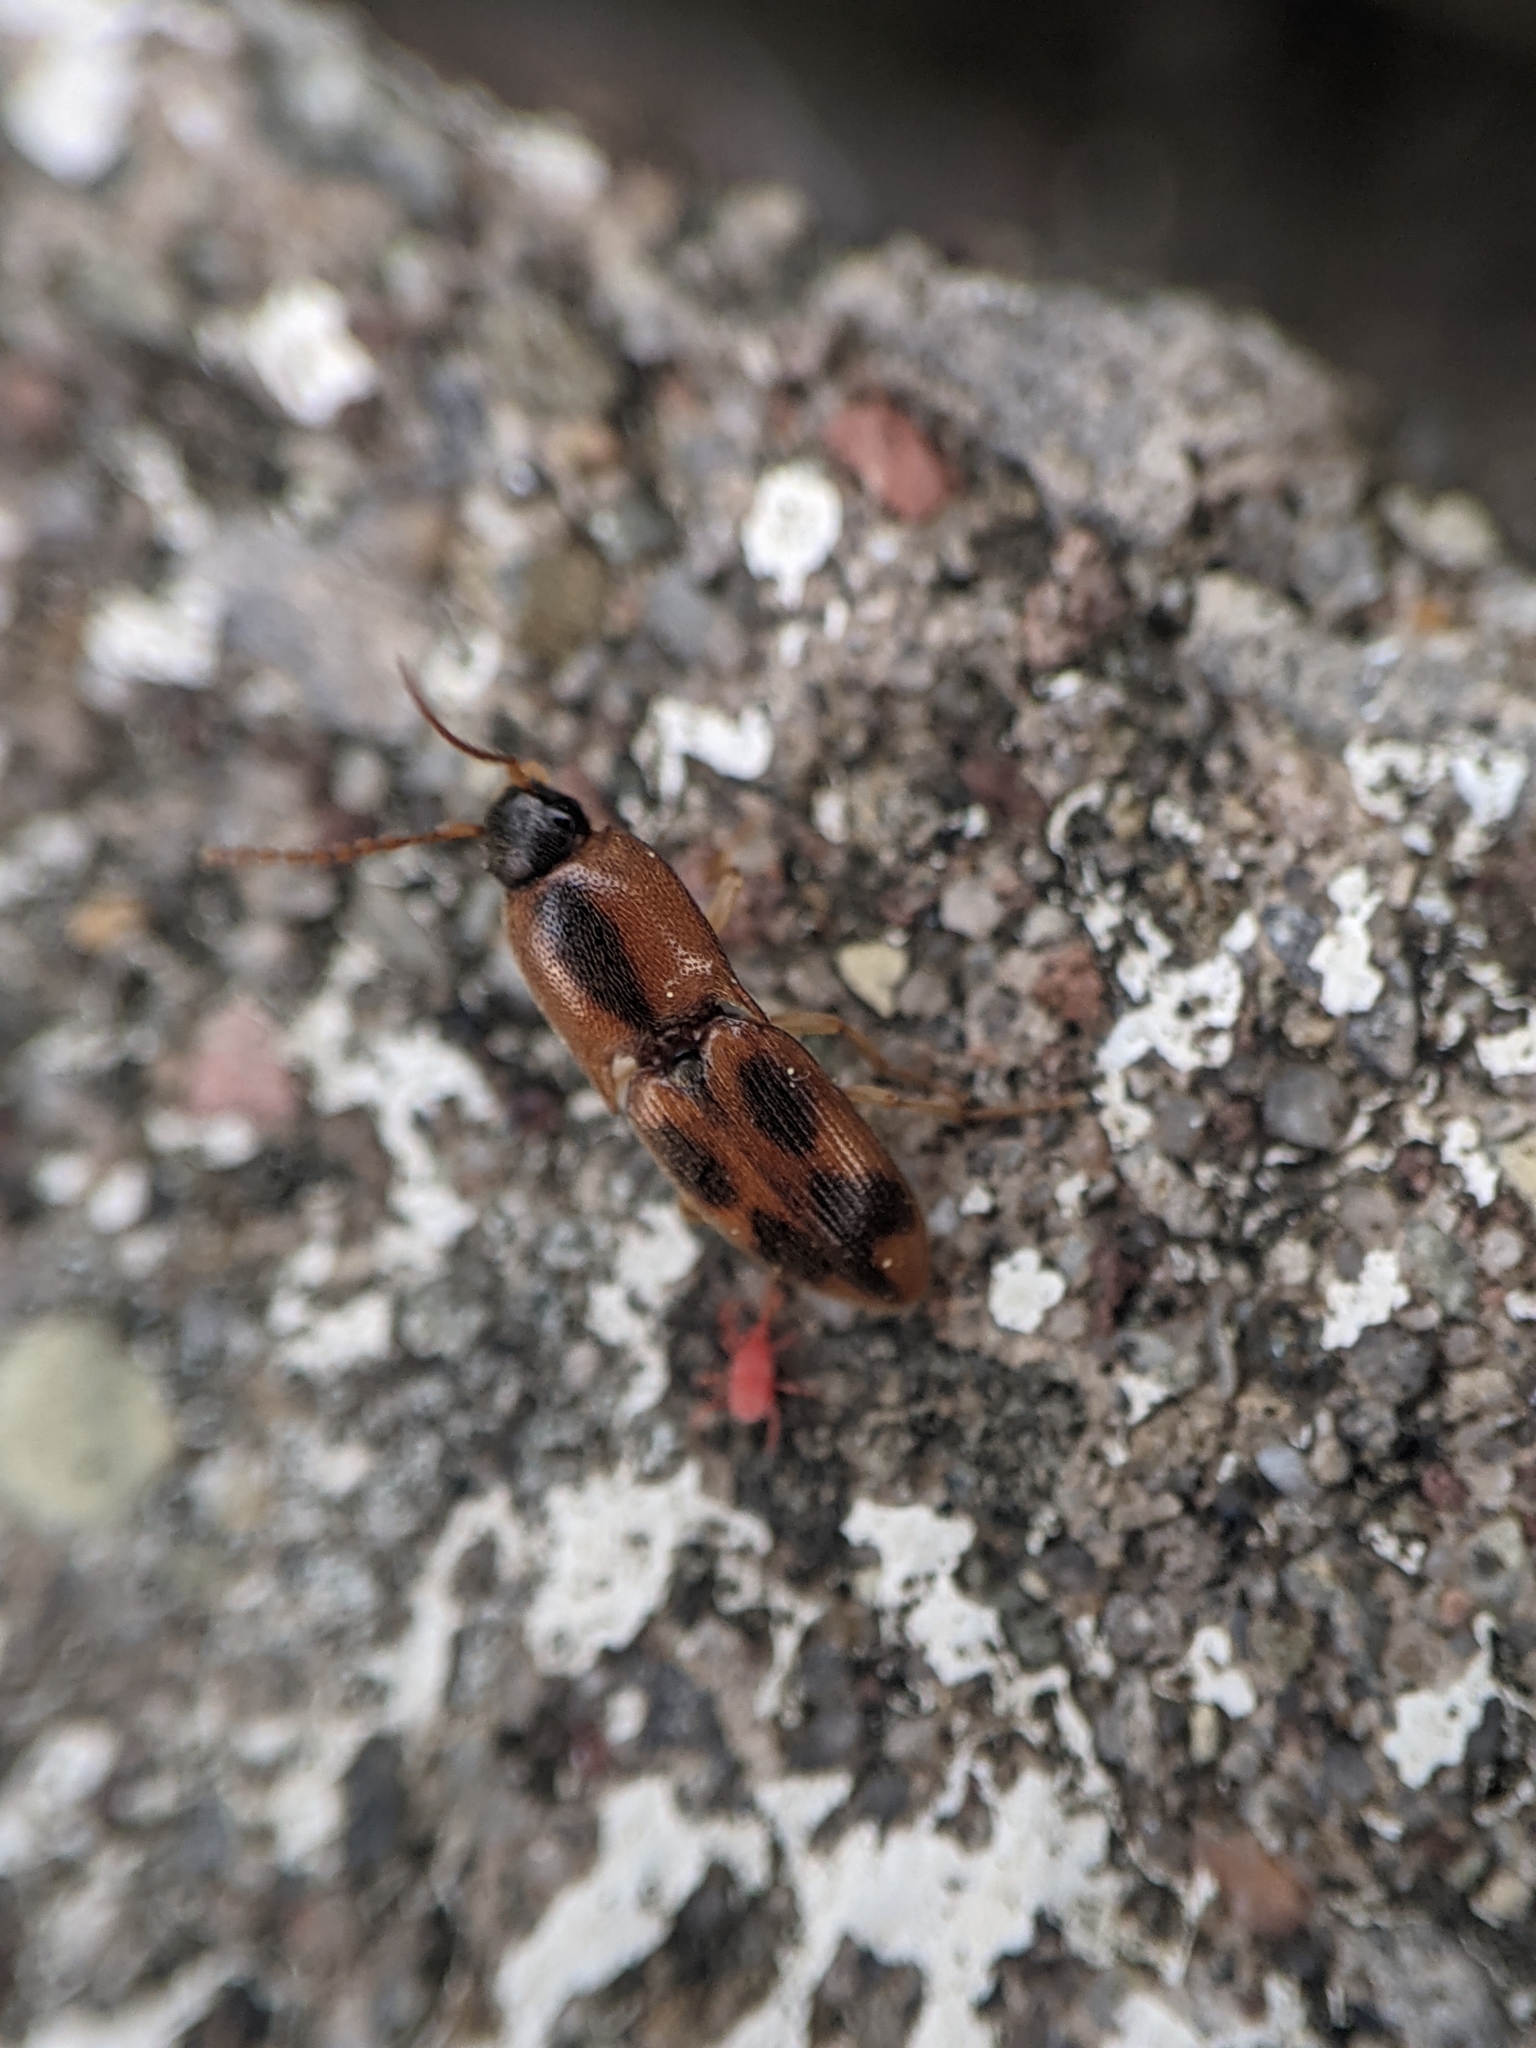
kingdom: Animalia
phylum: Arthropoda
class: Insecta
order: Coleoptera
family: Elateridae
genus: Aeolus
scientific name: Aeolus mellillus
